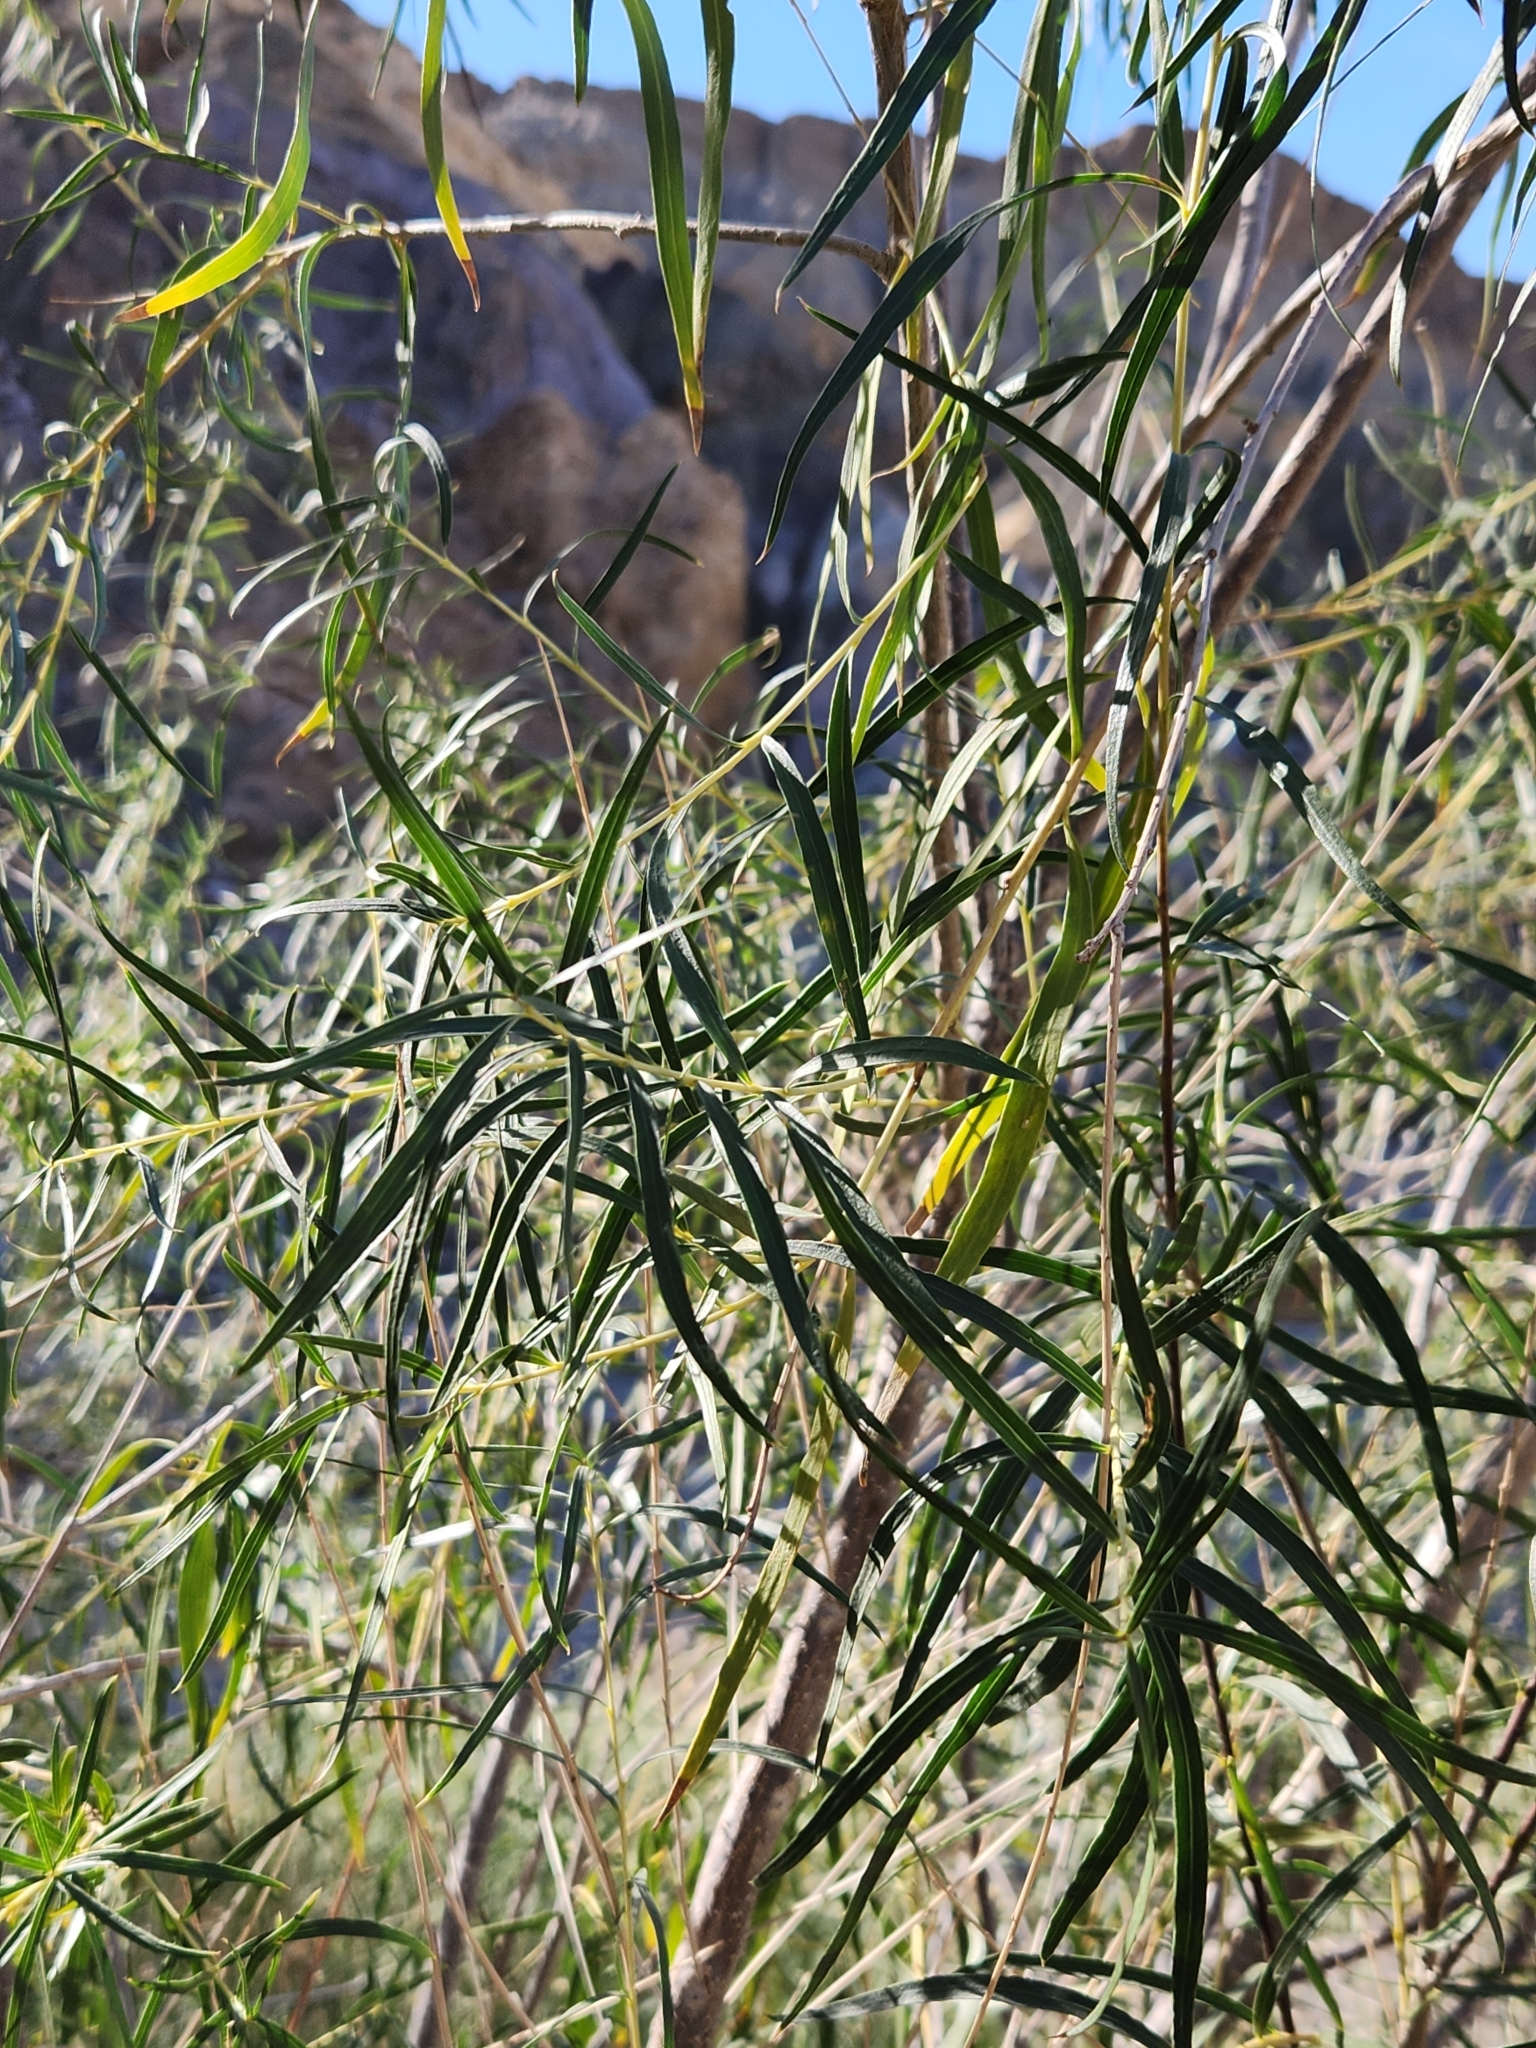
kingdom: Plantae
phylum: Tracheophyta
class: Magnoliopsida
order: Lamiales
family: Bignoniaceae
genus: Chilopsis
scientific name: Chilopsis linearis
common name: Desert-willow
